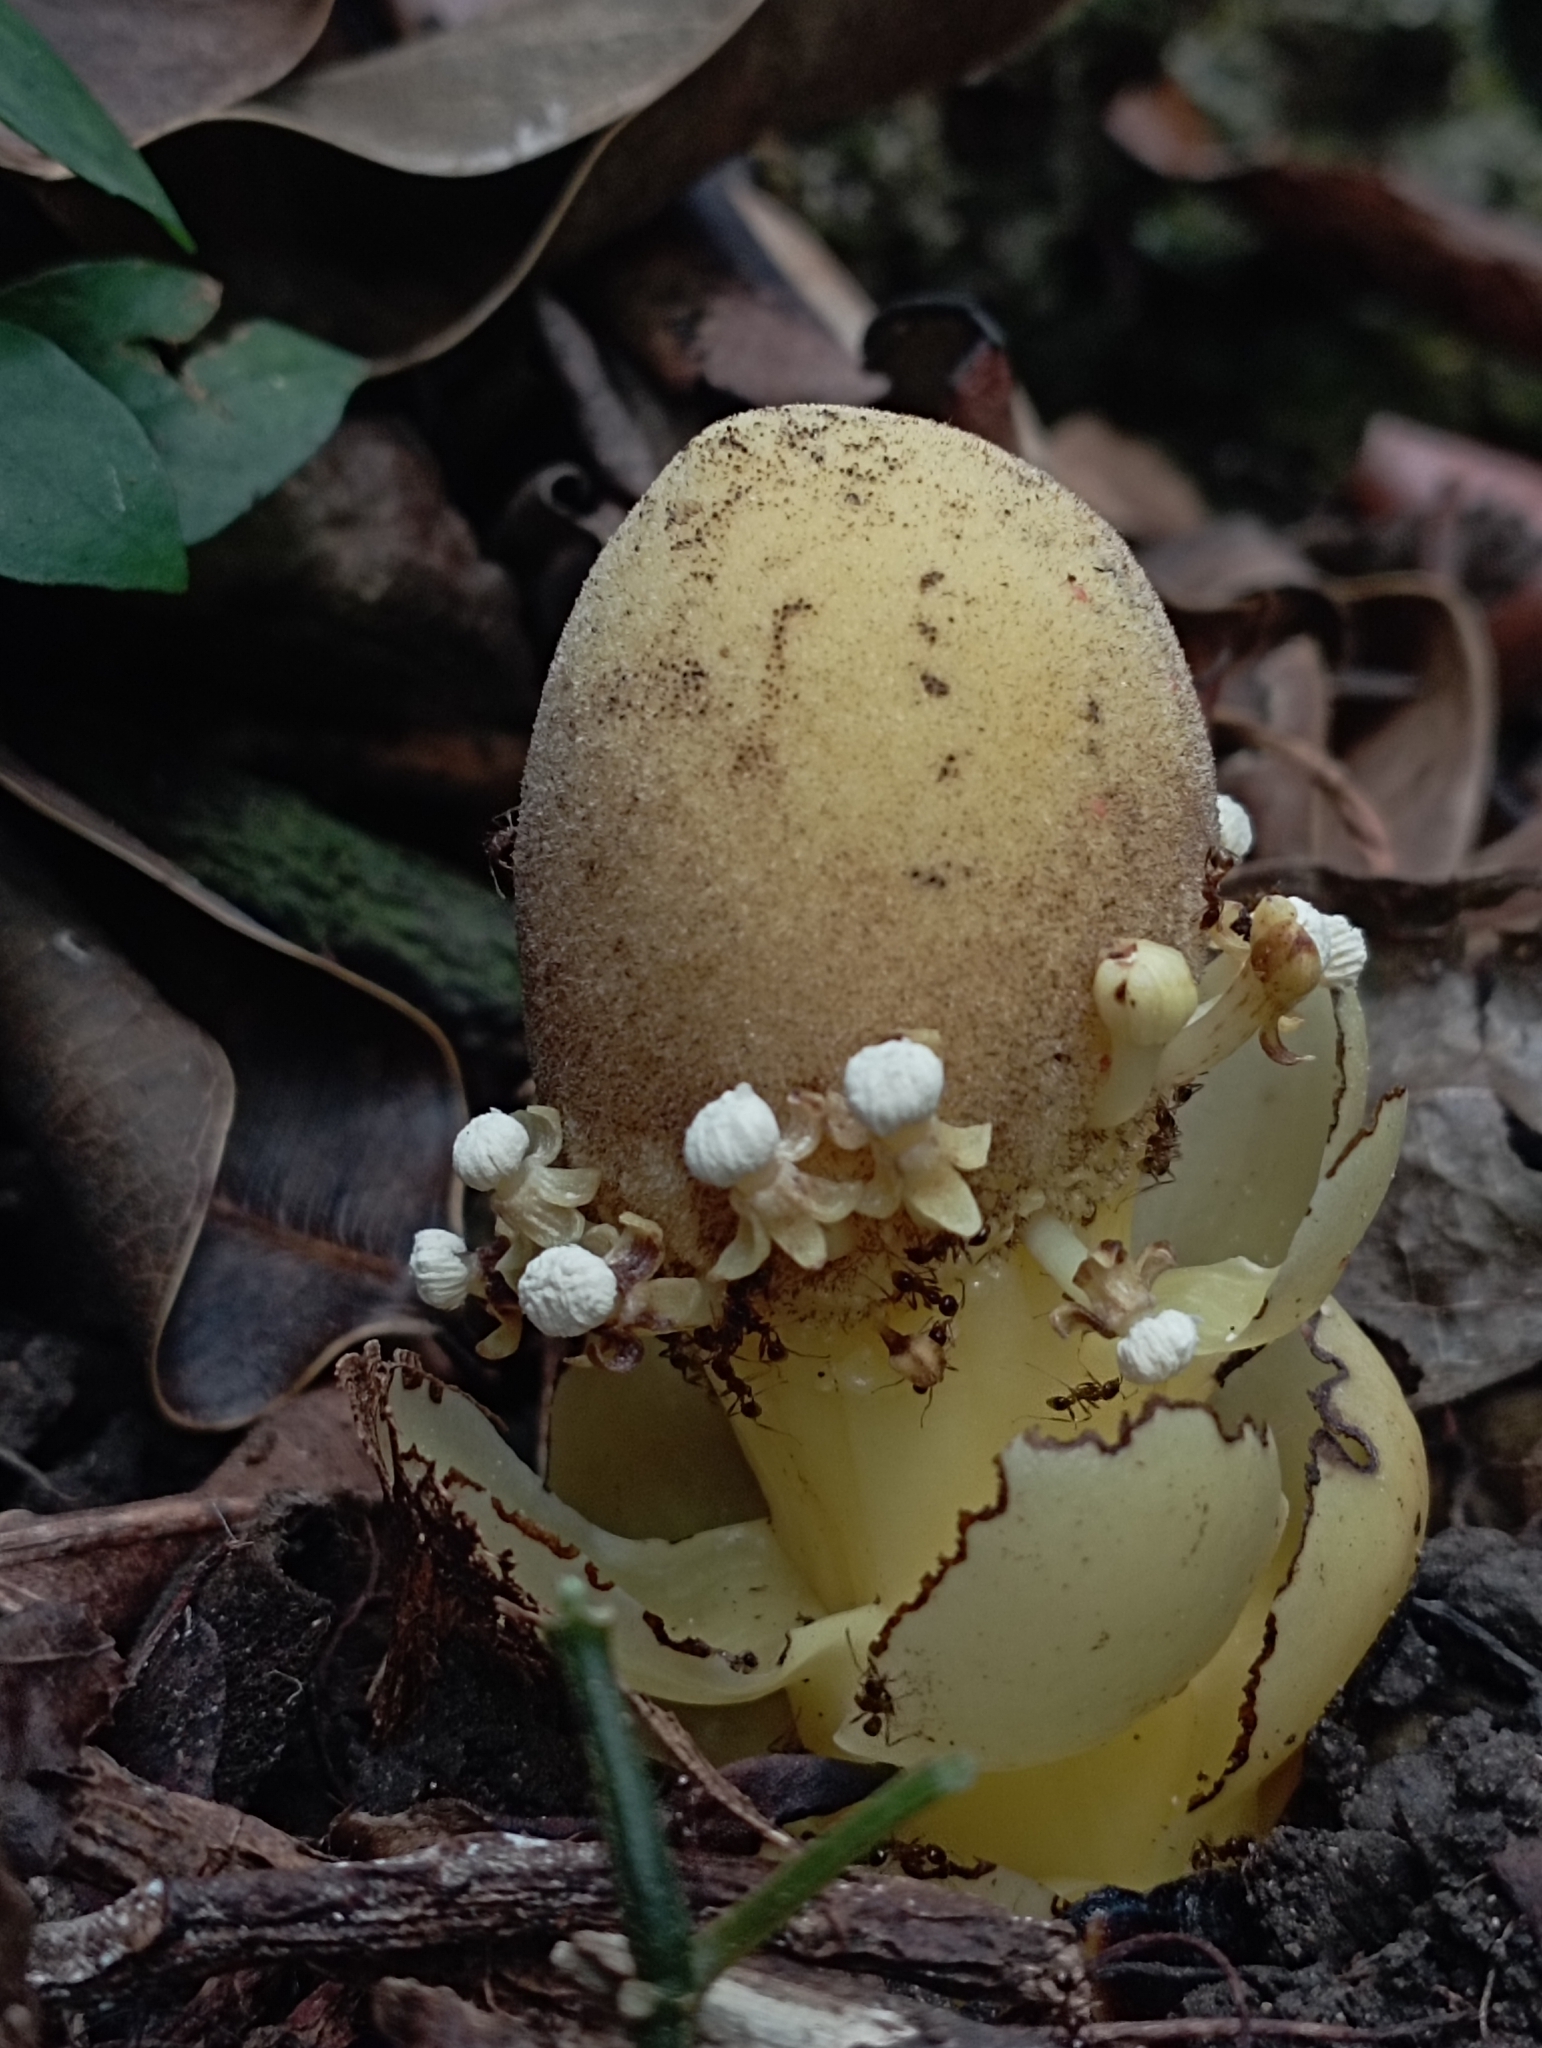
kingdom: Plantae
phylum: Tracheophyta
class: Magnoliopsida
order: Santalales
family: Balanophoraceae
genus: Balanophora
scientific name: Balanophora fungosa
